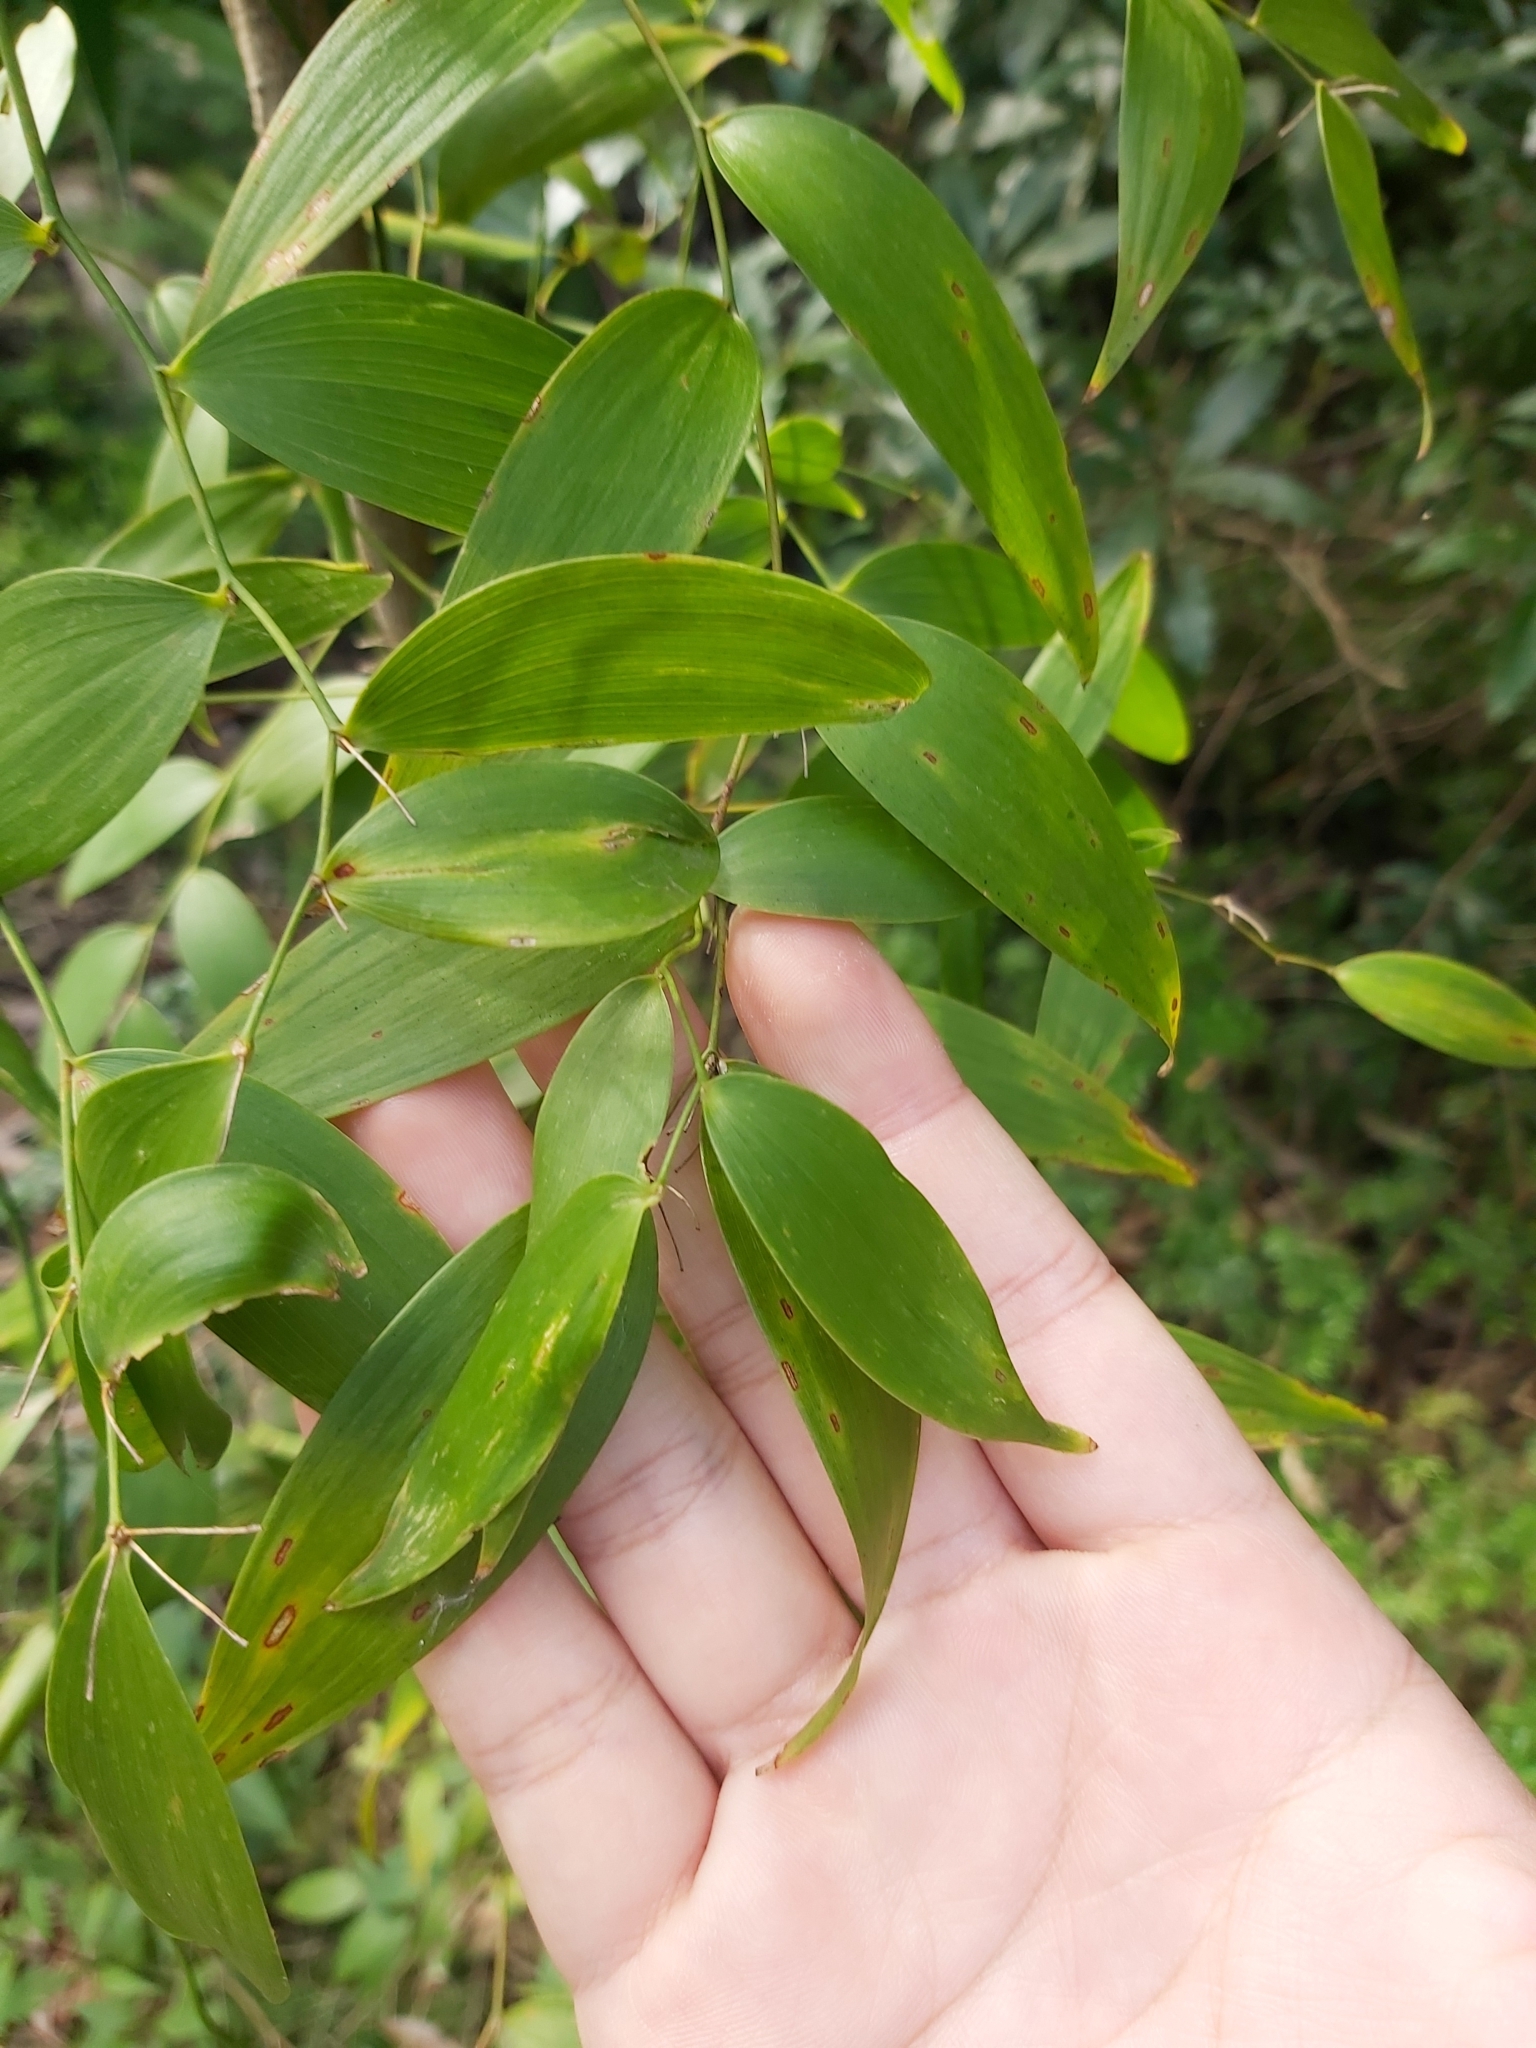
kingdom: Plantae
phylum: Tracheophyta
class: Liliopsida
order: Asparagales
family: Asparagaceae
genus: Eustrephus
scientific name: Eustrephus latifolius
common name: Orangevine
